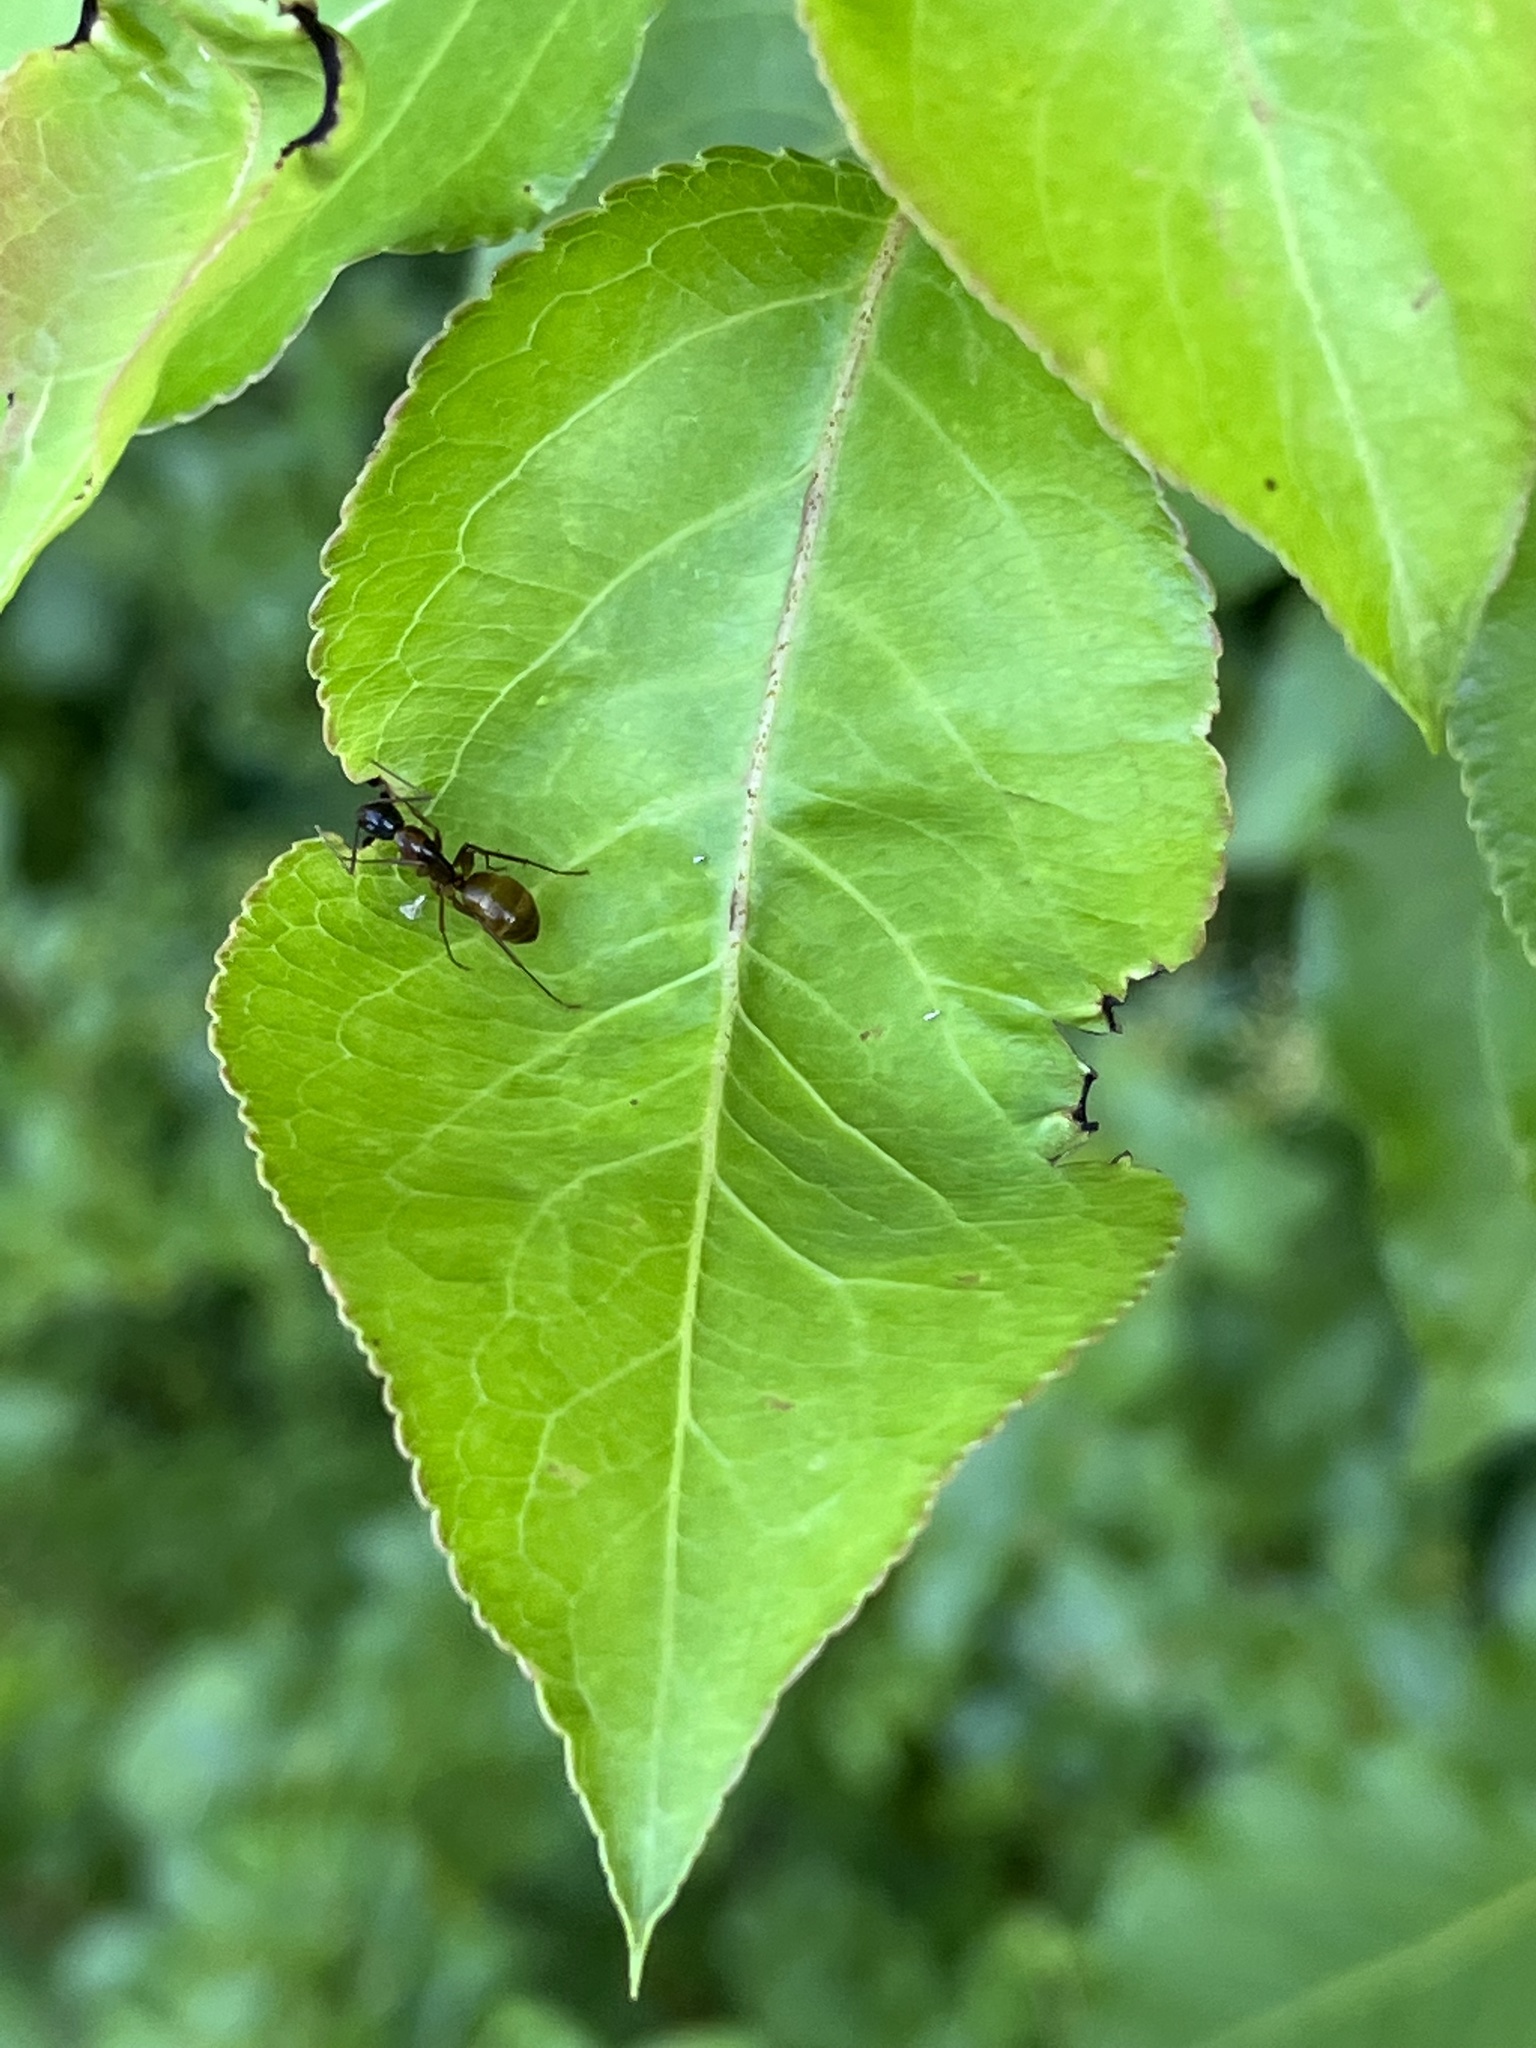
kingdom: Animalia
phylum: Arthropoda
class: Insecta
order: Hymenoptera
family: Formicidae
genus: Camponotus
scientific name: Camponotus americanus
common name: American carpenter ant
